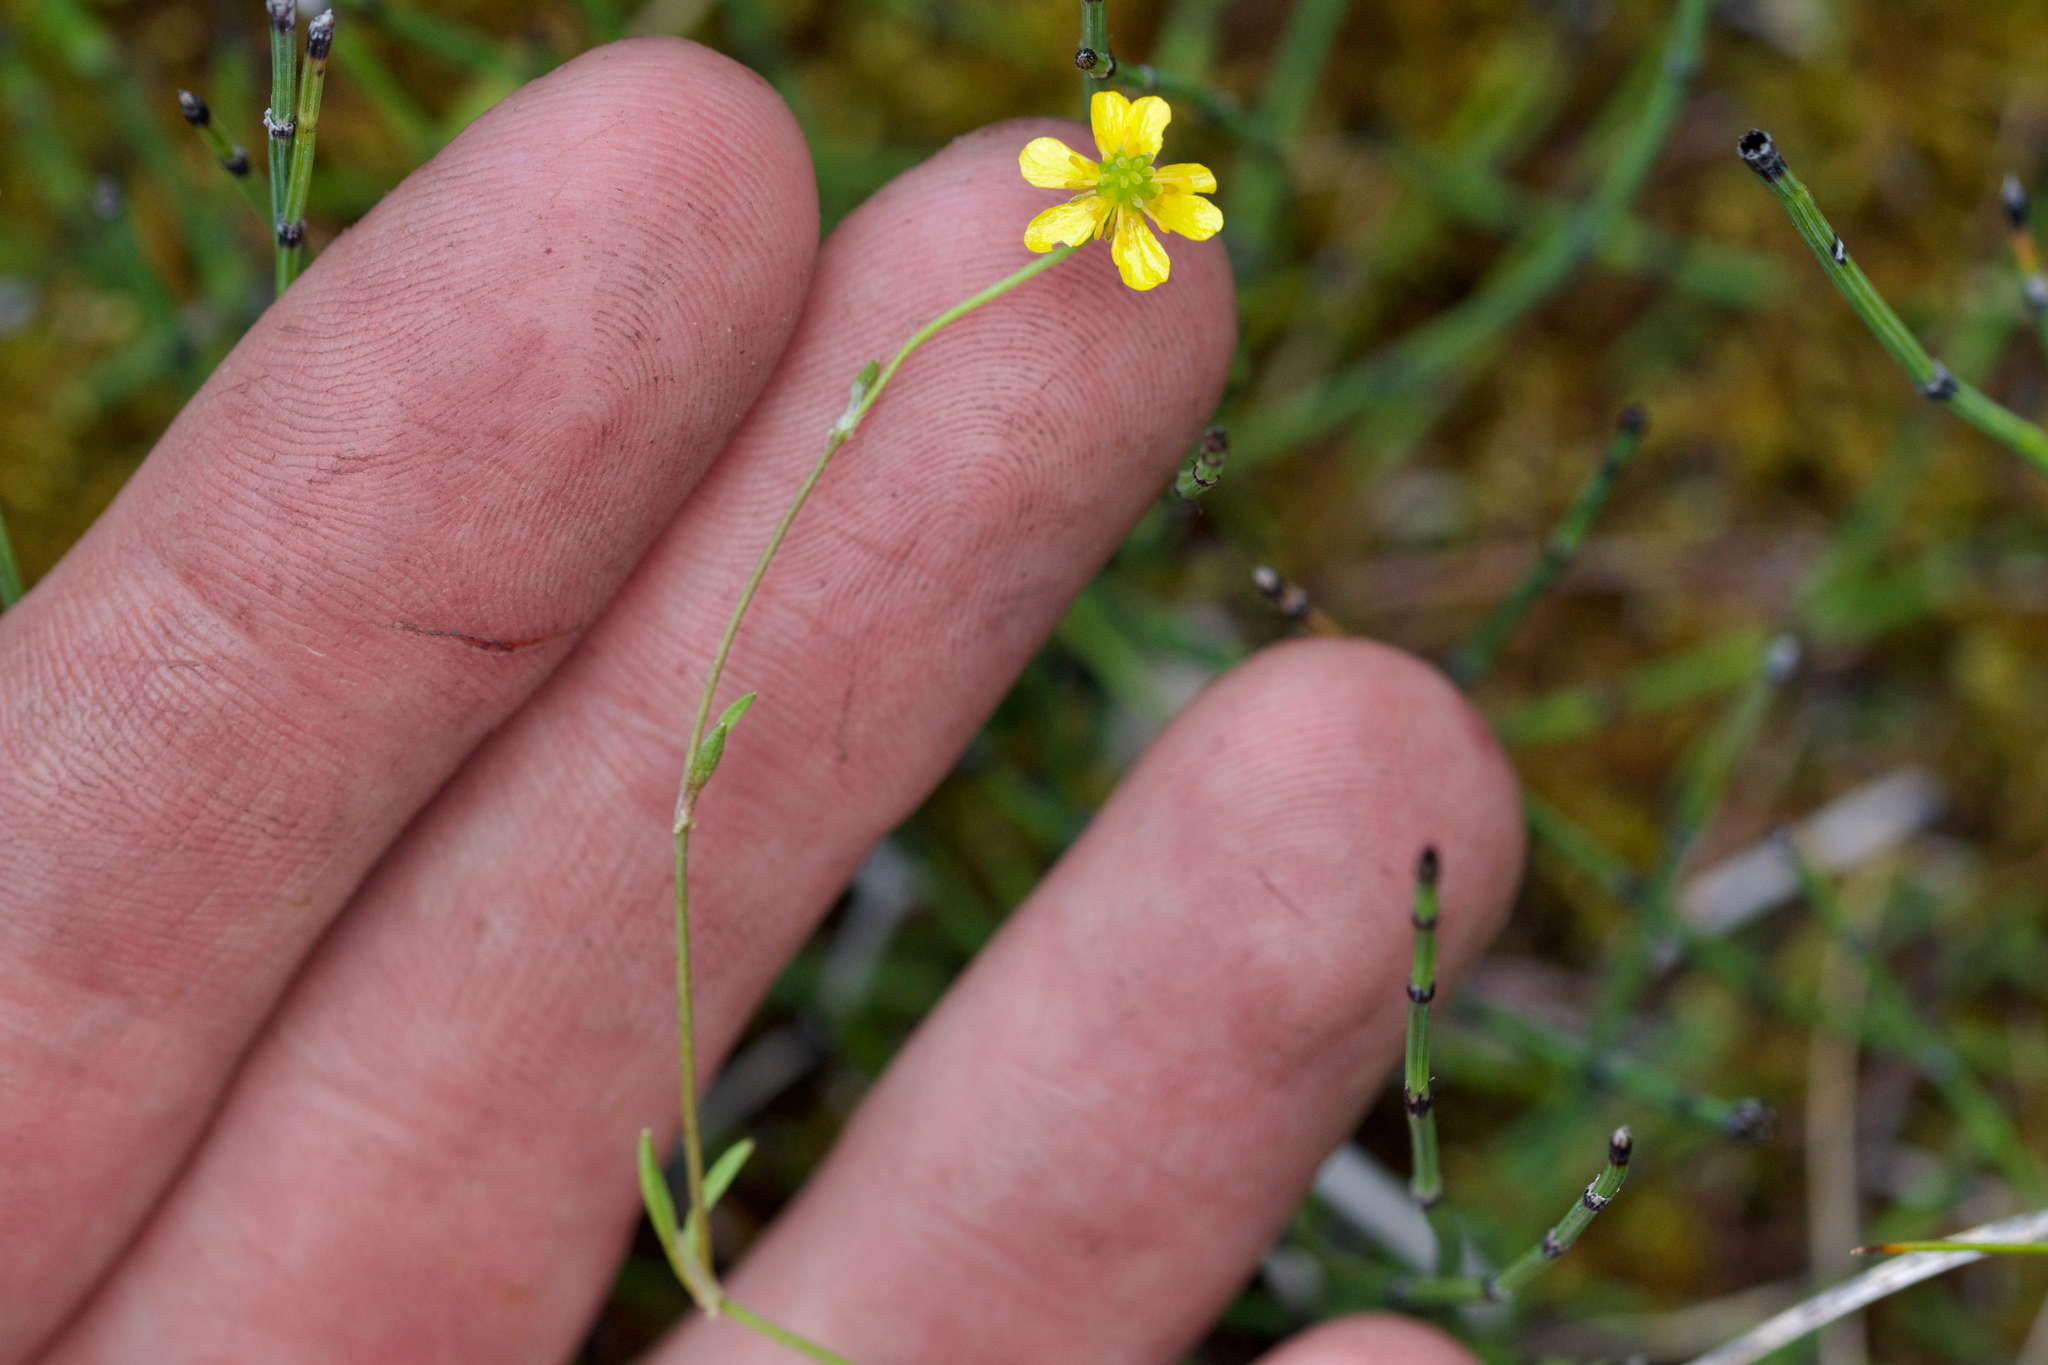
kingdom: Plantae
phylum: Tracheophyta
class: Magnoliopsida
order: Ranunculales
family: Ranunculaceae
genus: Ranunculus
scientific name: Ranunculus reptans
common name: Creeping spearwort
